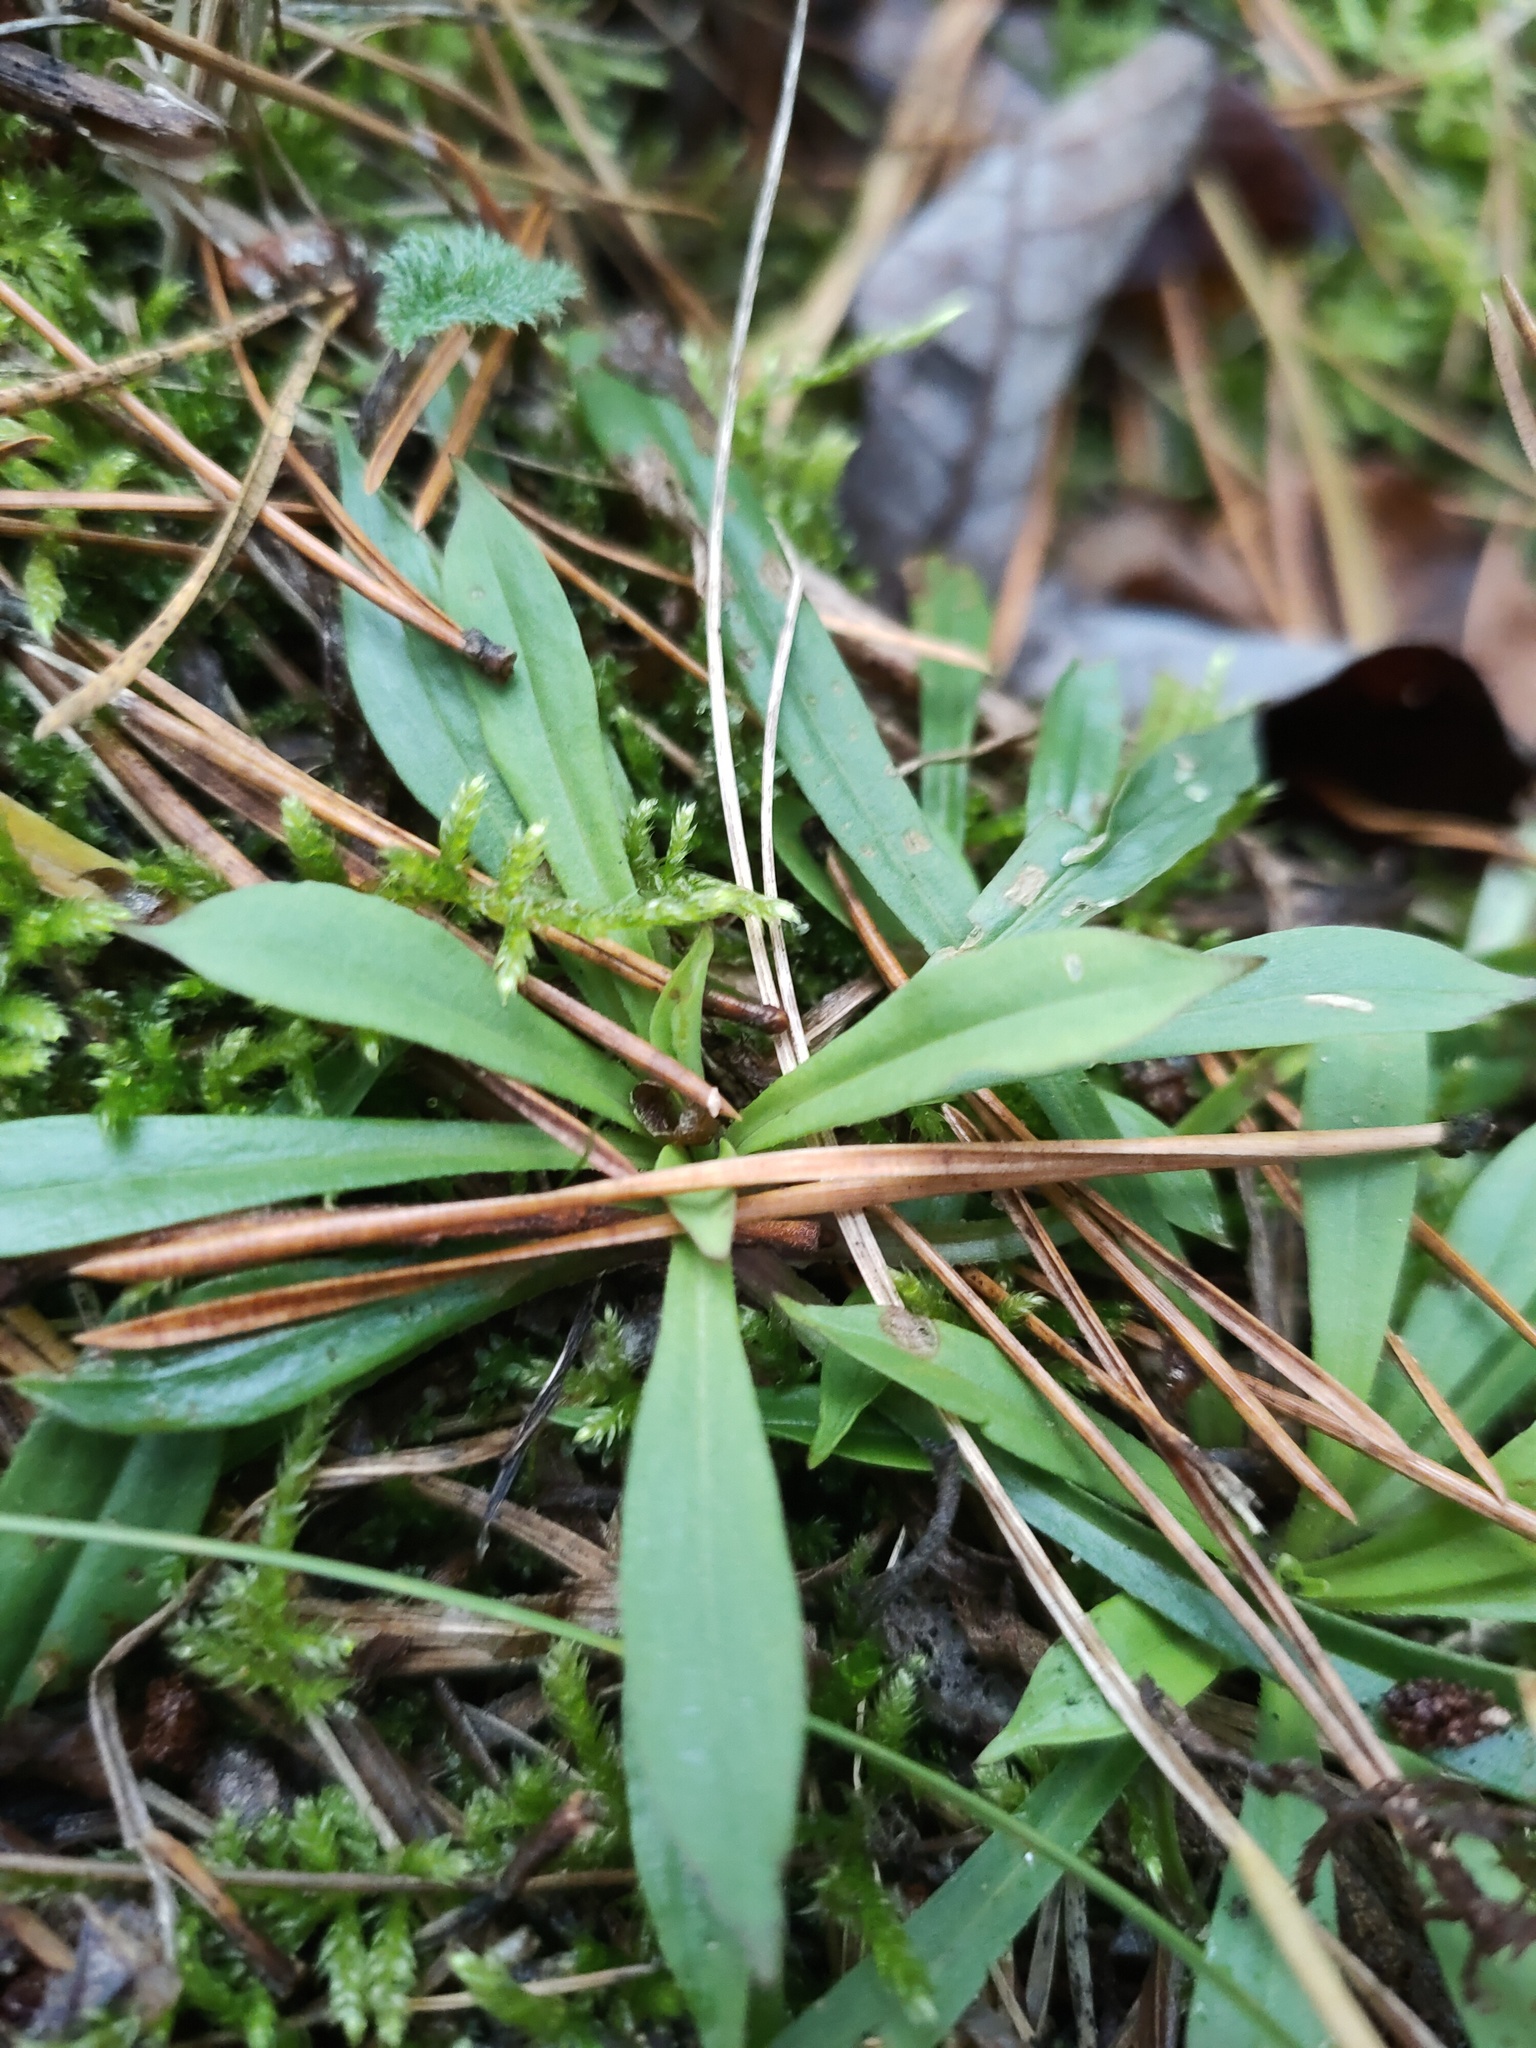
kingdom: Plantae
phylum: Tracheophyta
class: Magnoliopsida
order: Caryophyllales
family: Caryophyllaceae
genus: Viscaria
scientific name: Viscaria vulgaris
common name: Clammy campion
